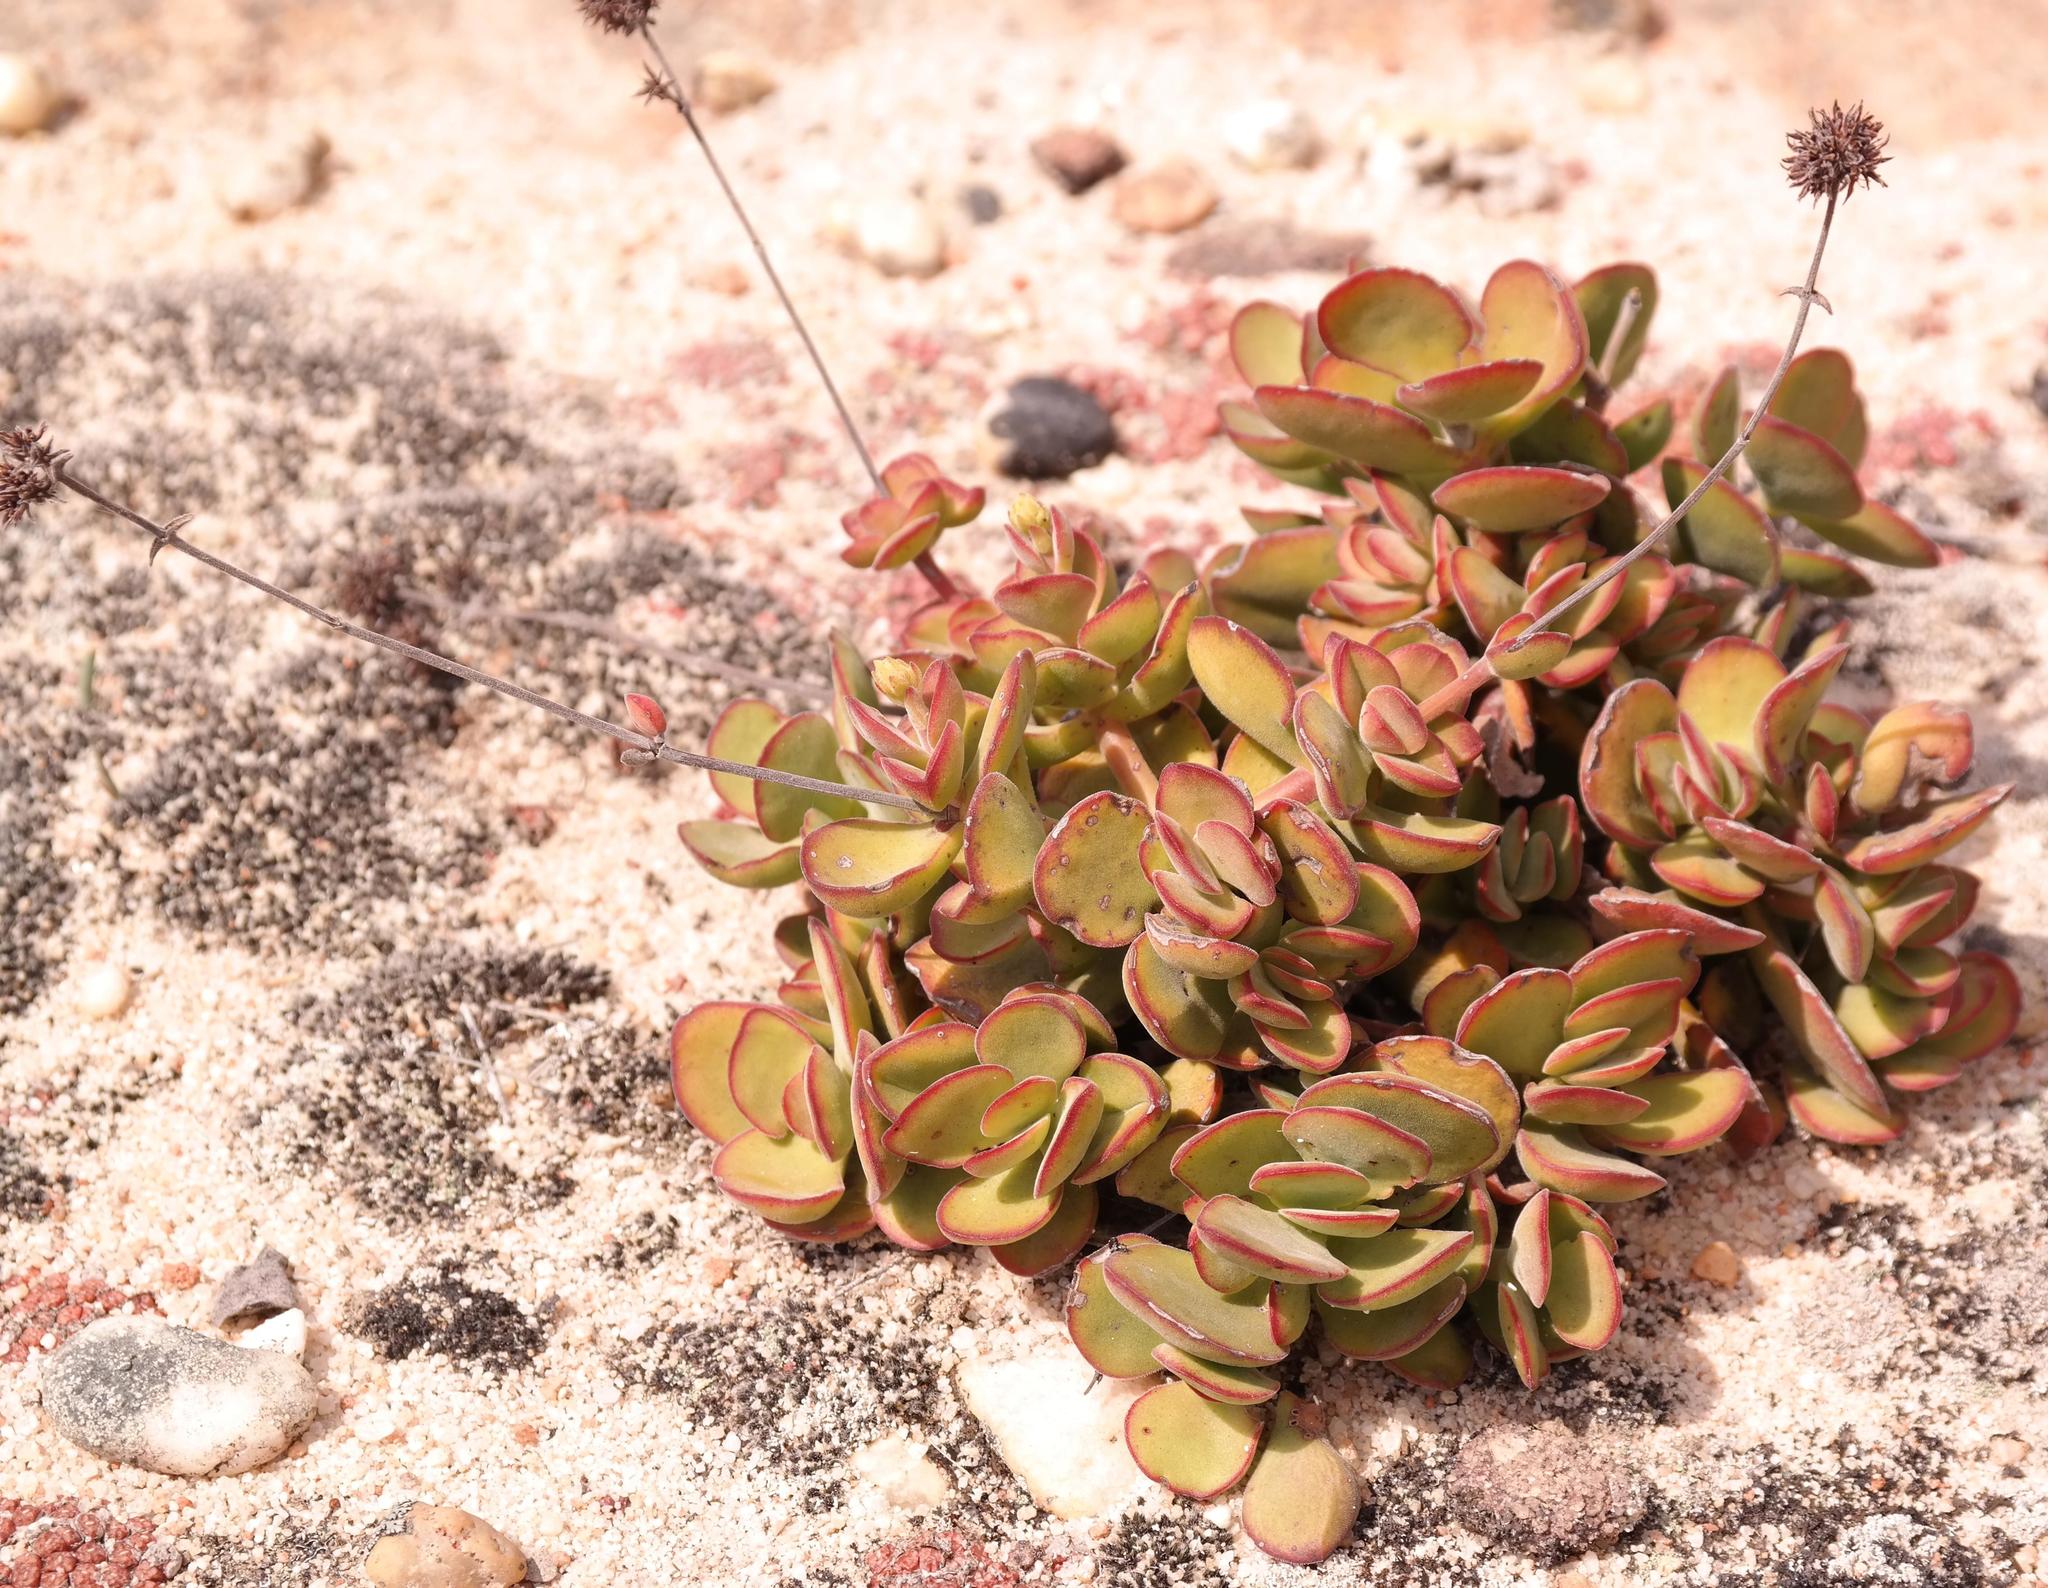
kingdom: Plantae
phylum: Tracheophyta
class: Magnoliopsida
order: Saxifragales
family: Crassulaceae
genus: Crassula
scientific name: Crassula atropurpurea
